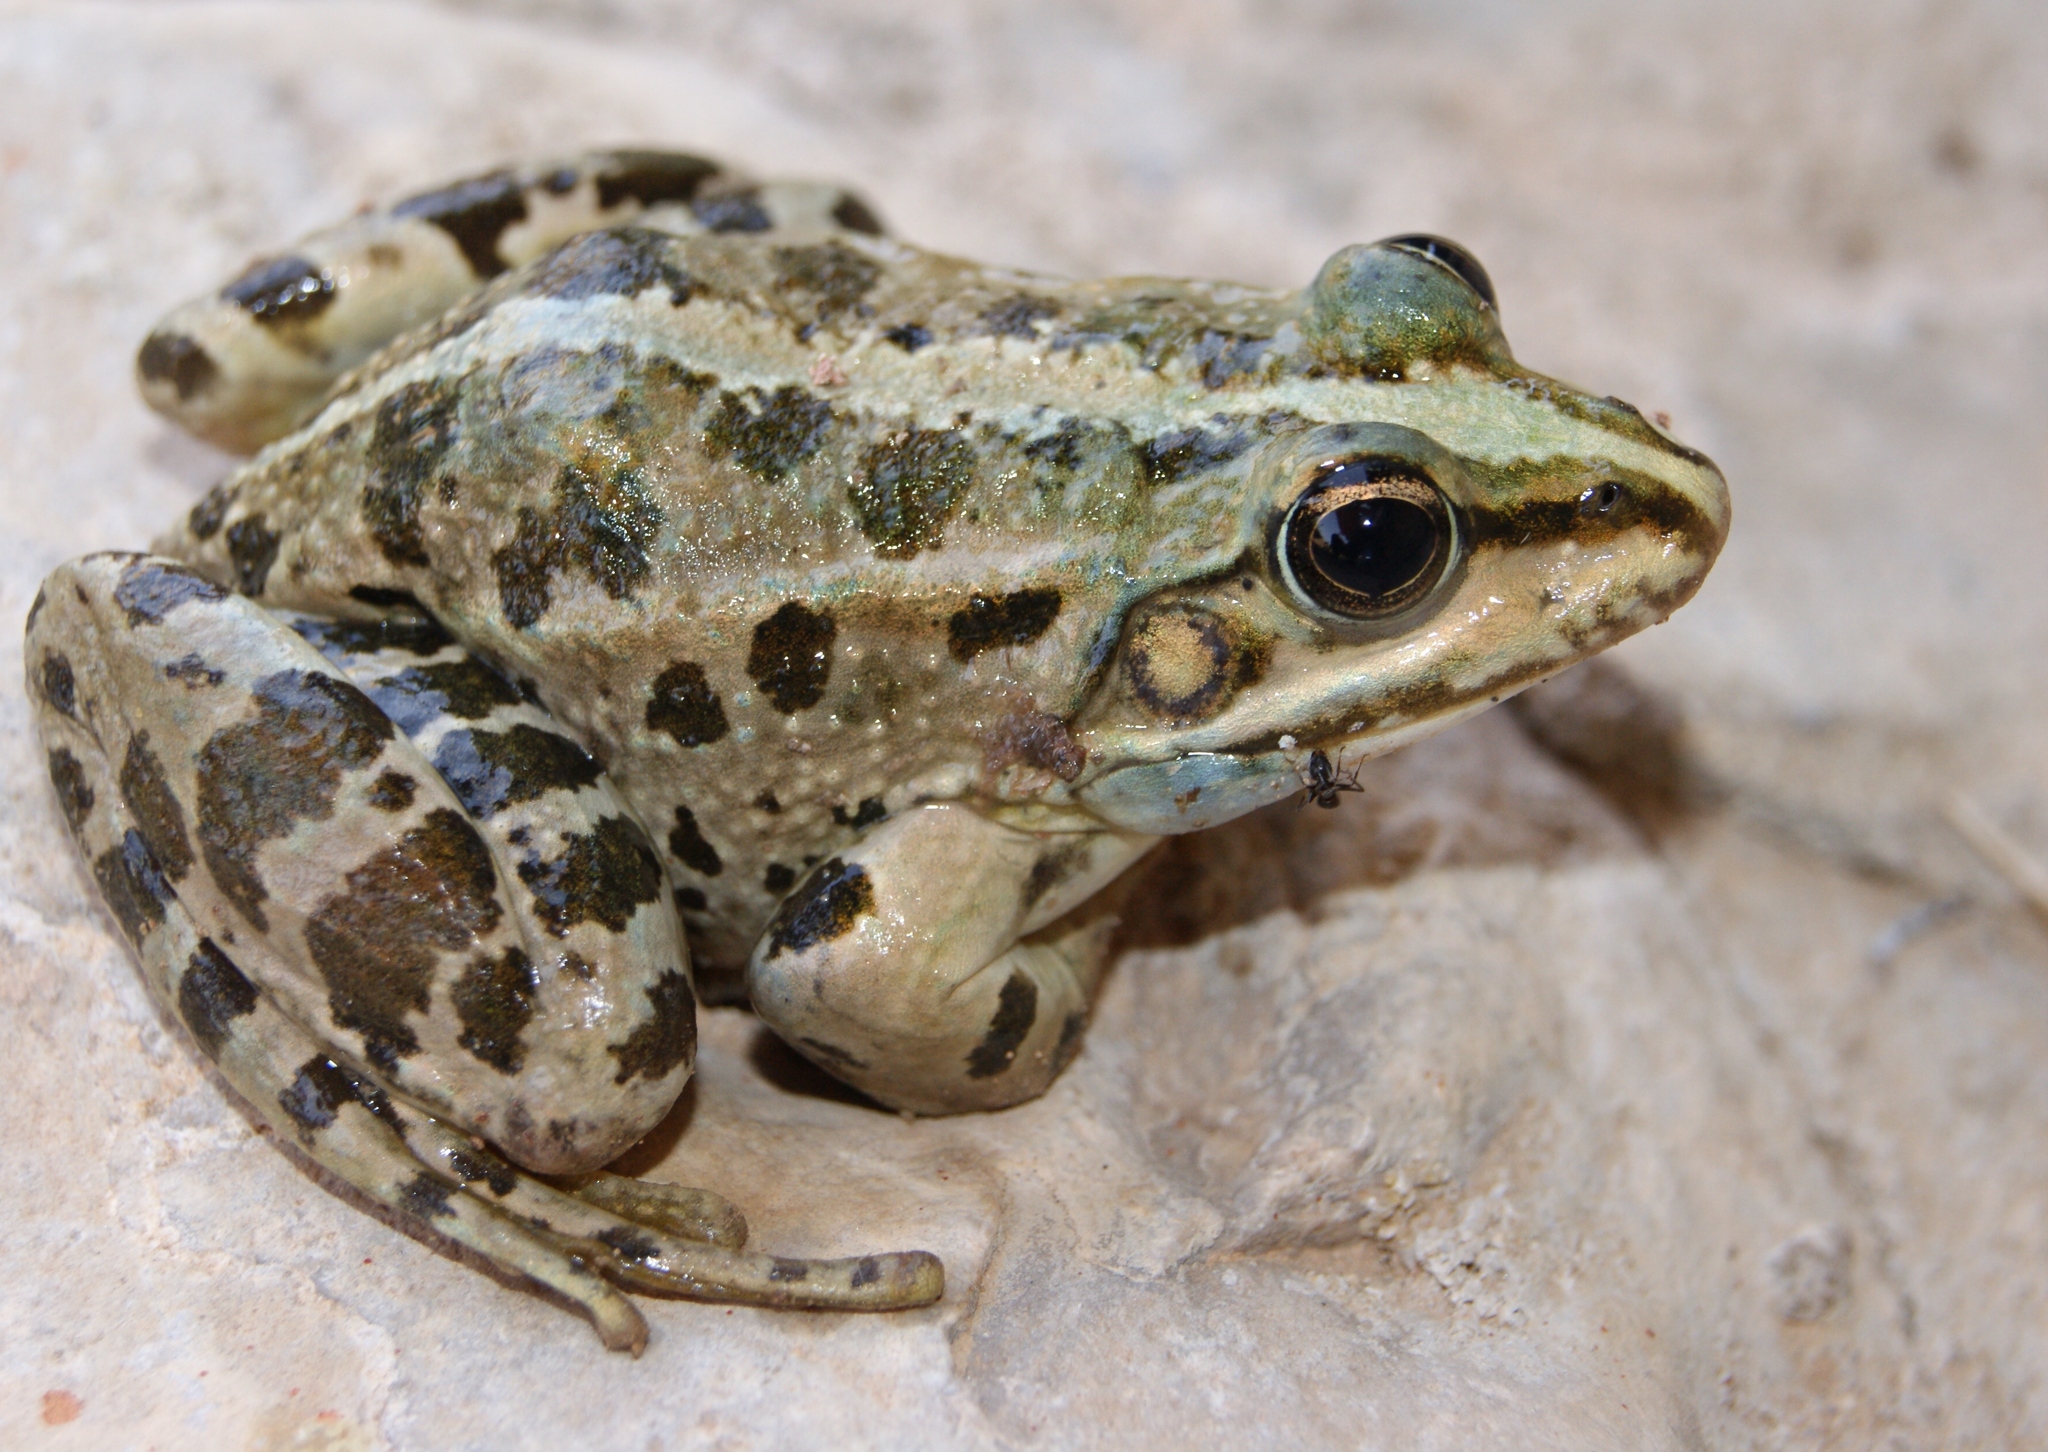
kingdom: Animalia
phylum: Chordata
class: Amphibia
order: Anura
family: Ranidae
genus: Pelophylax
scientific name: Pelophylax ridibundus
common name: Marsh frog
